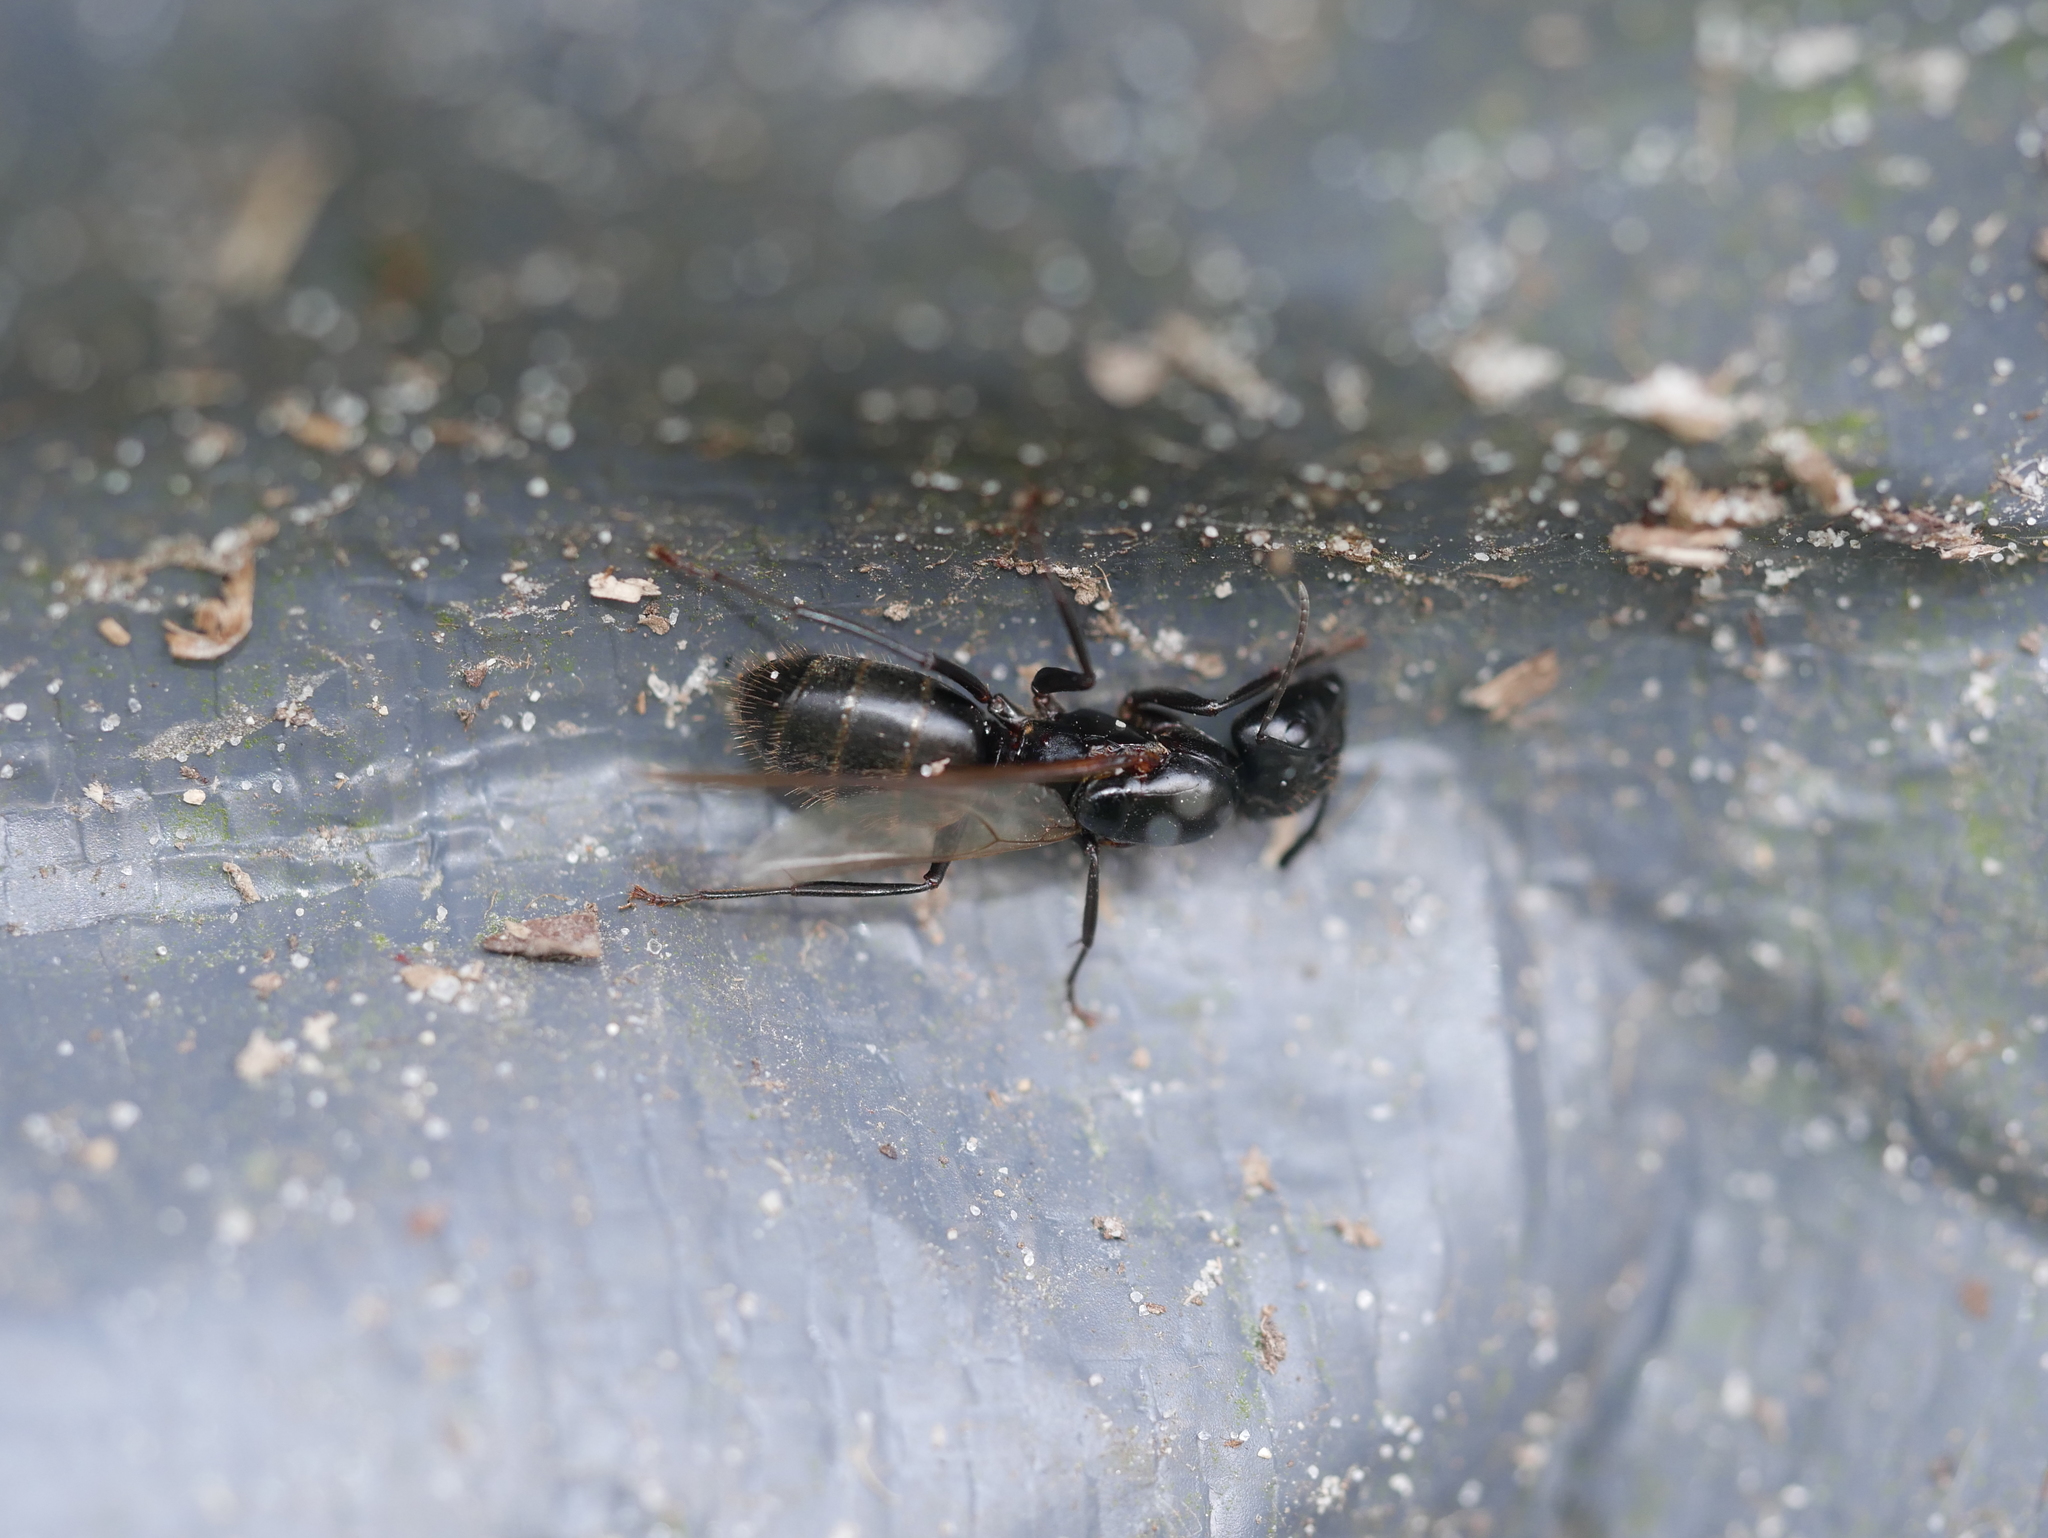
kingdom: Animalia
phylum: Arthropoda
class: Insecta
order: Hymenoptera
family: Formicidae
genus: Camponotus
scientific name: Camponotus pennsylvanicus
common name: Black carpenter ant
